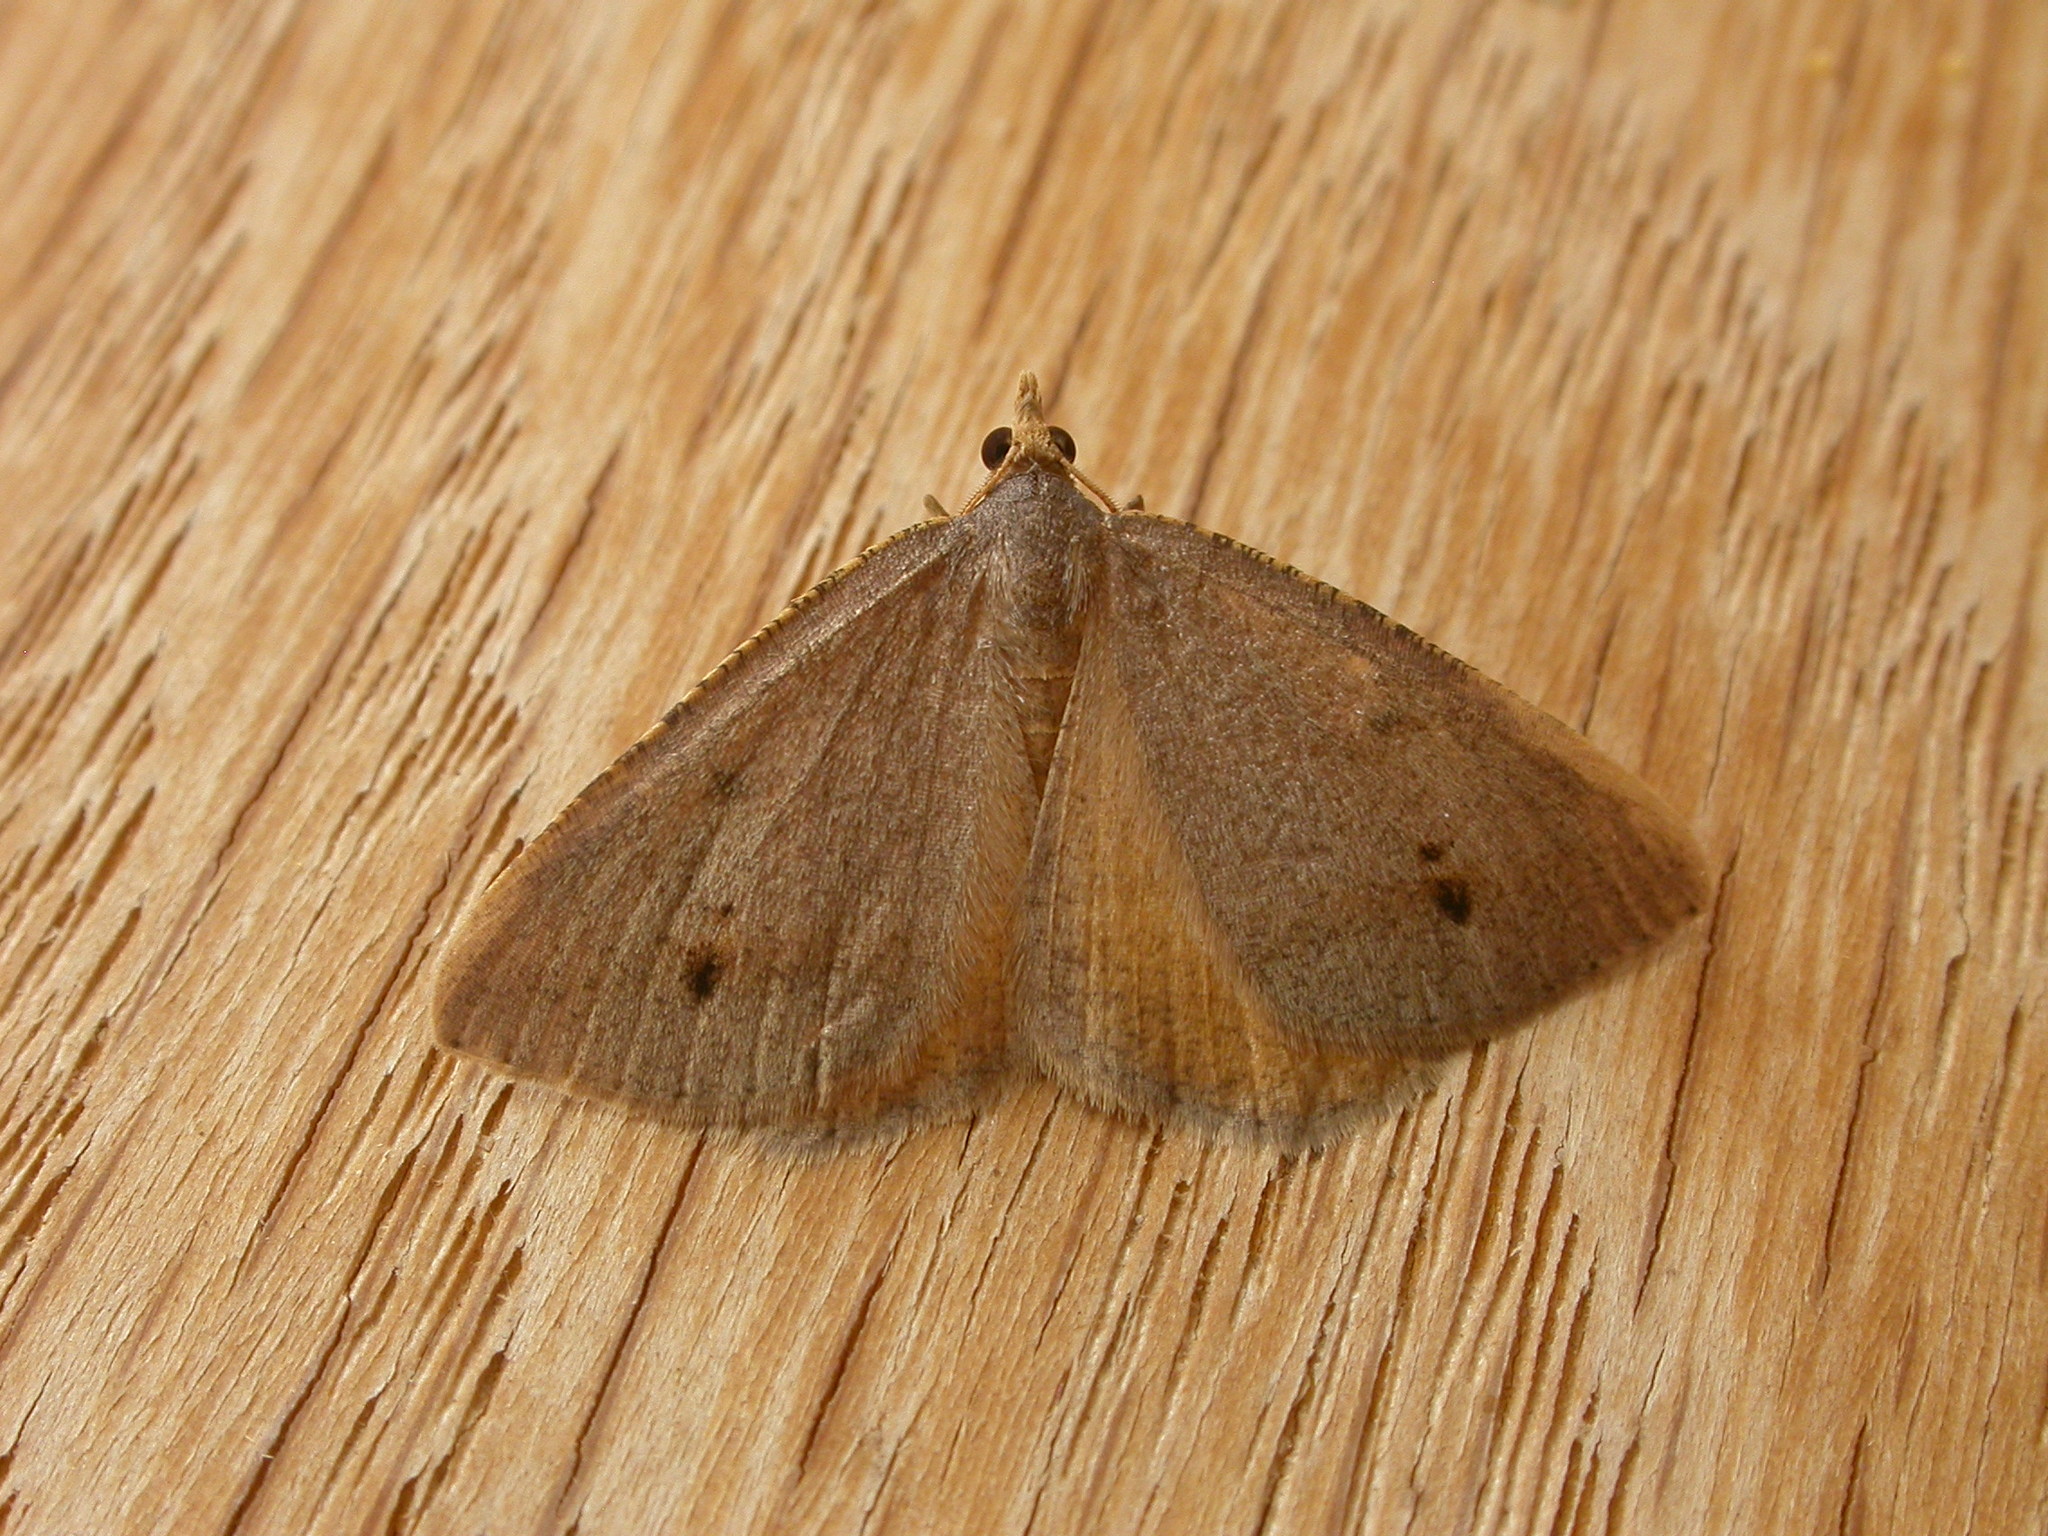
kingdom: Animalia
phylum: Arthropoda
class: Insecta
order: Lepidoptera
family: Geometridae
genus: Parosteodes
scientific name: Parosteodes fictiliaria
